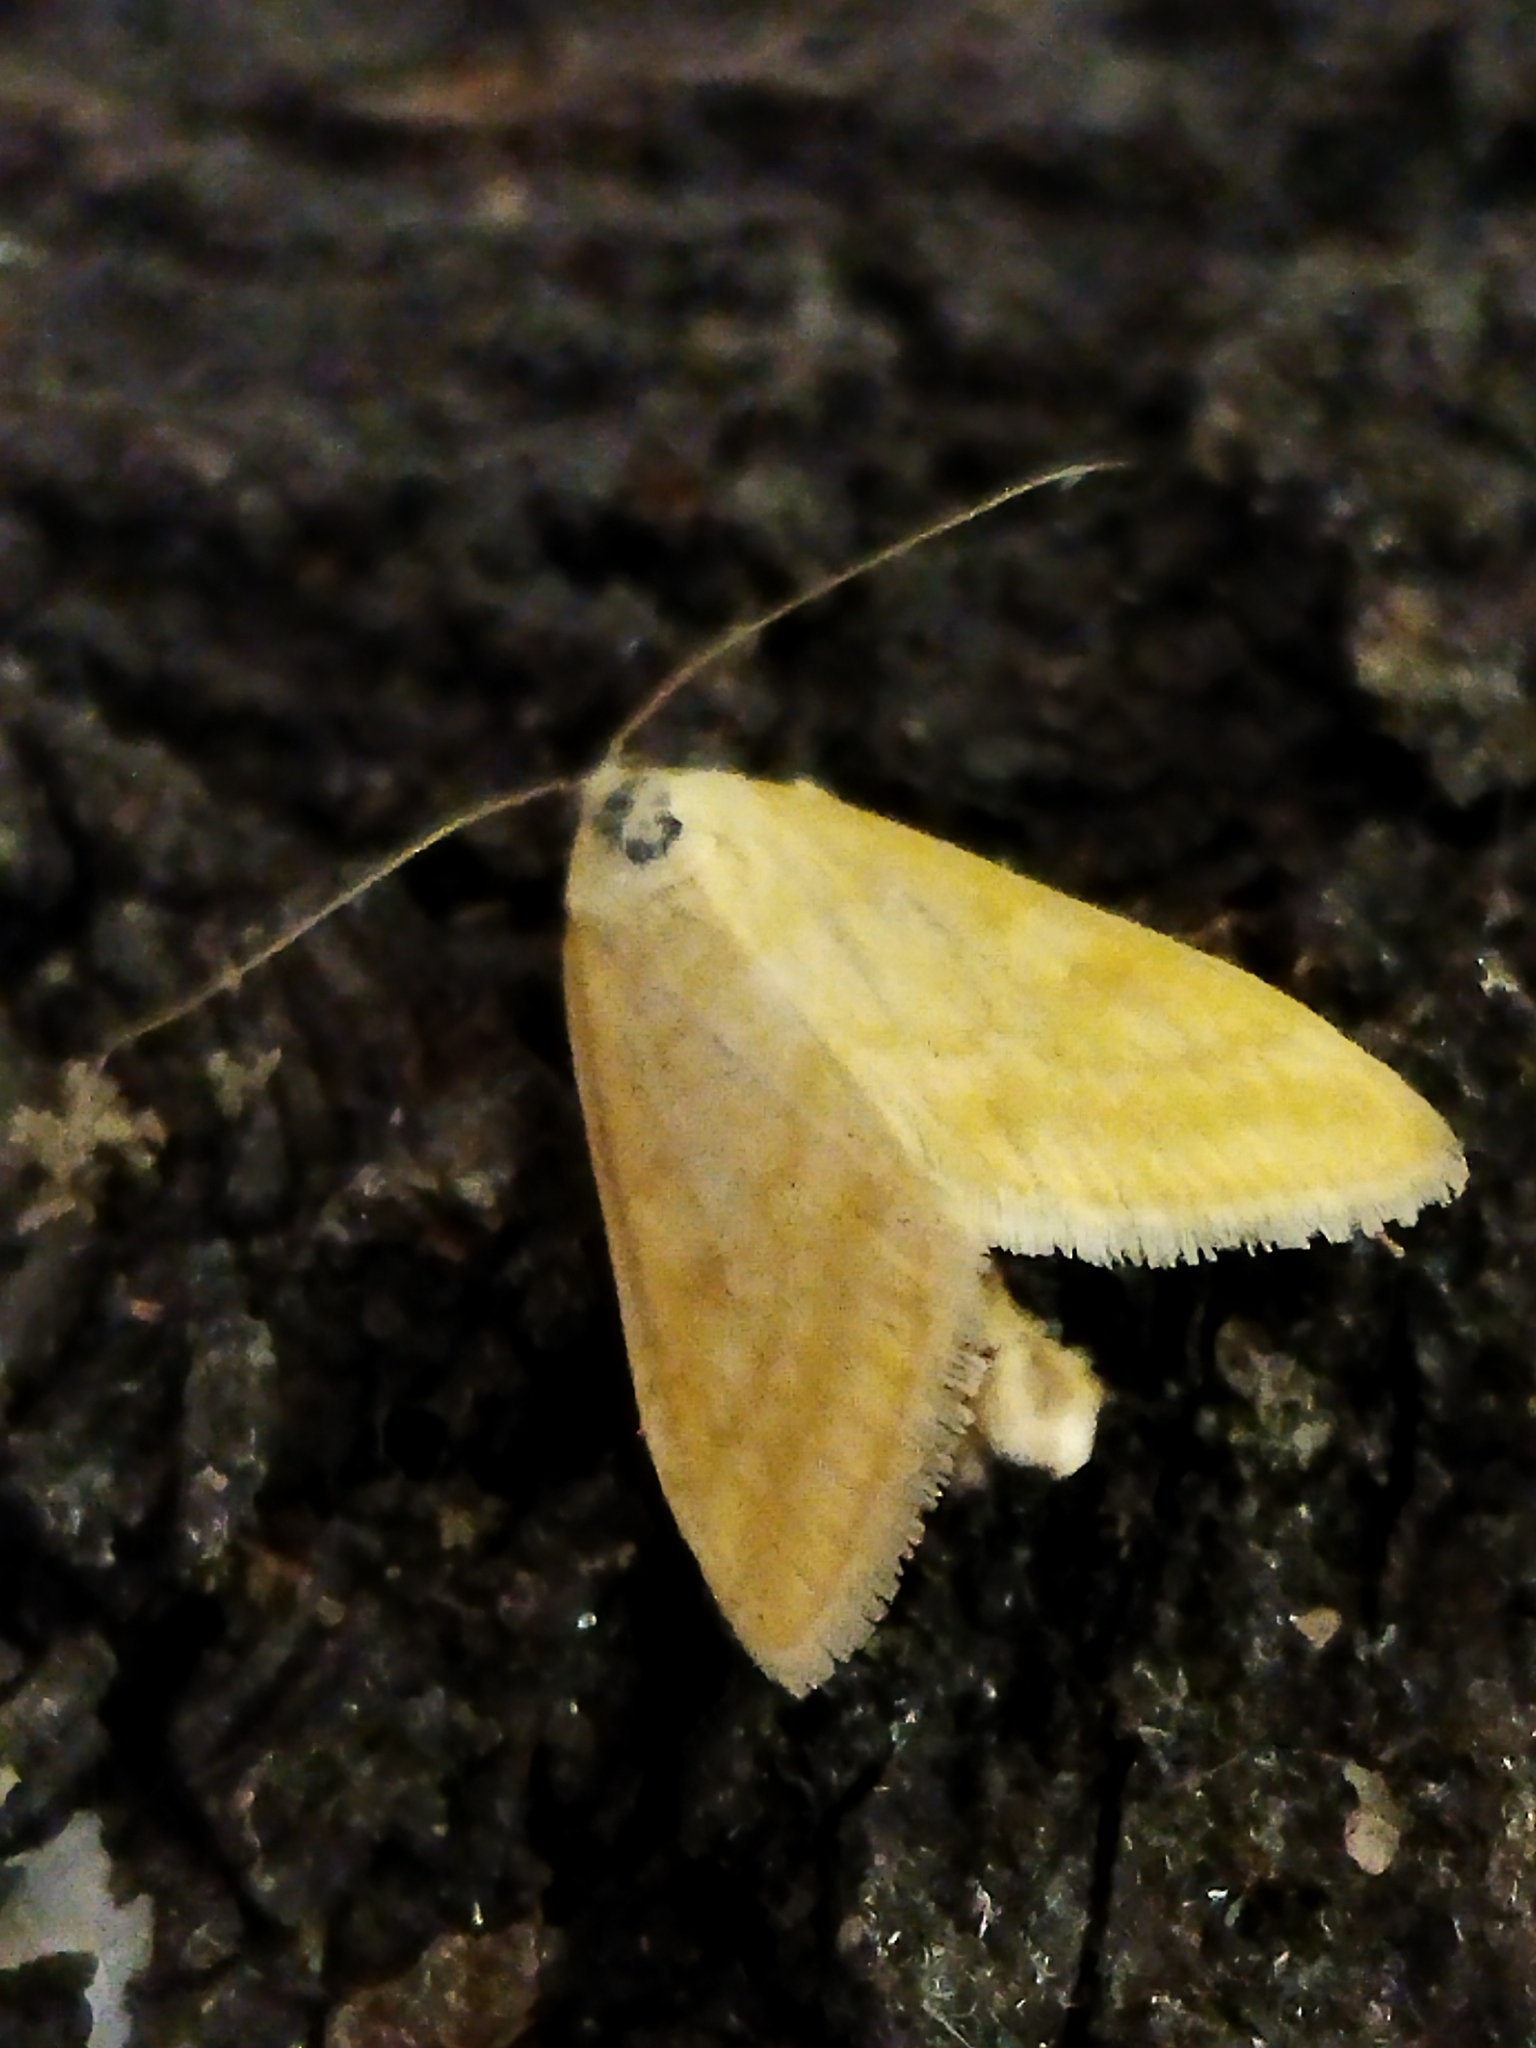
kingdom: Animalia
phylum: Arthropoda
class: Insecta
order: Lepidoptera
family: Crambidae
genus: Sitochroa
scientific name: Sitochroa verticalis
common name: Lesser pearl
